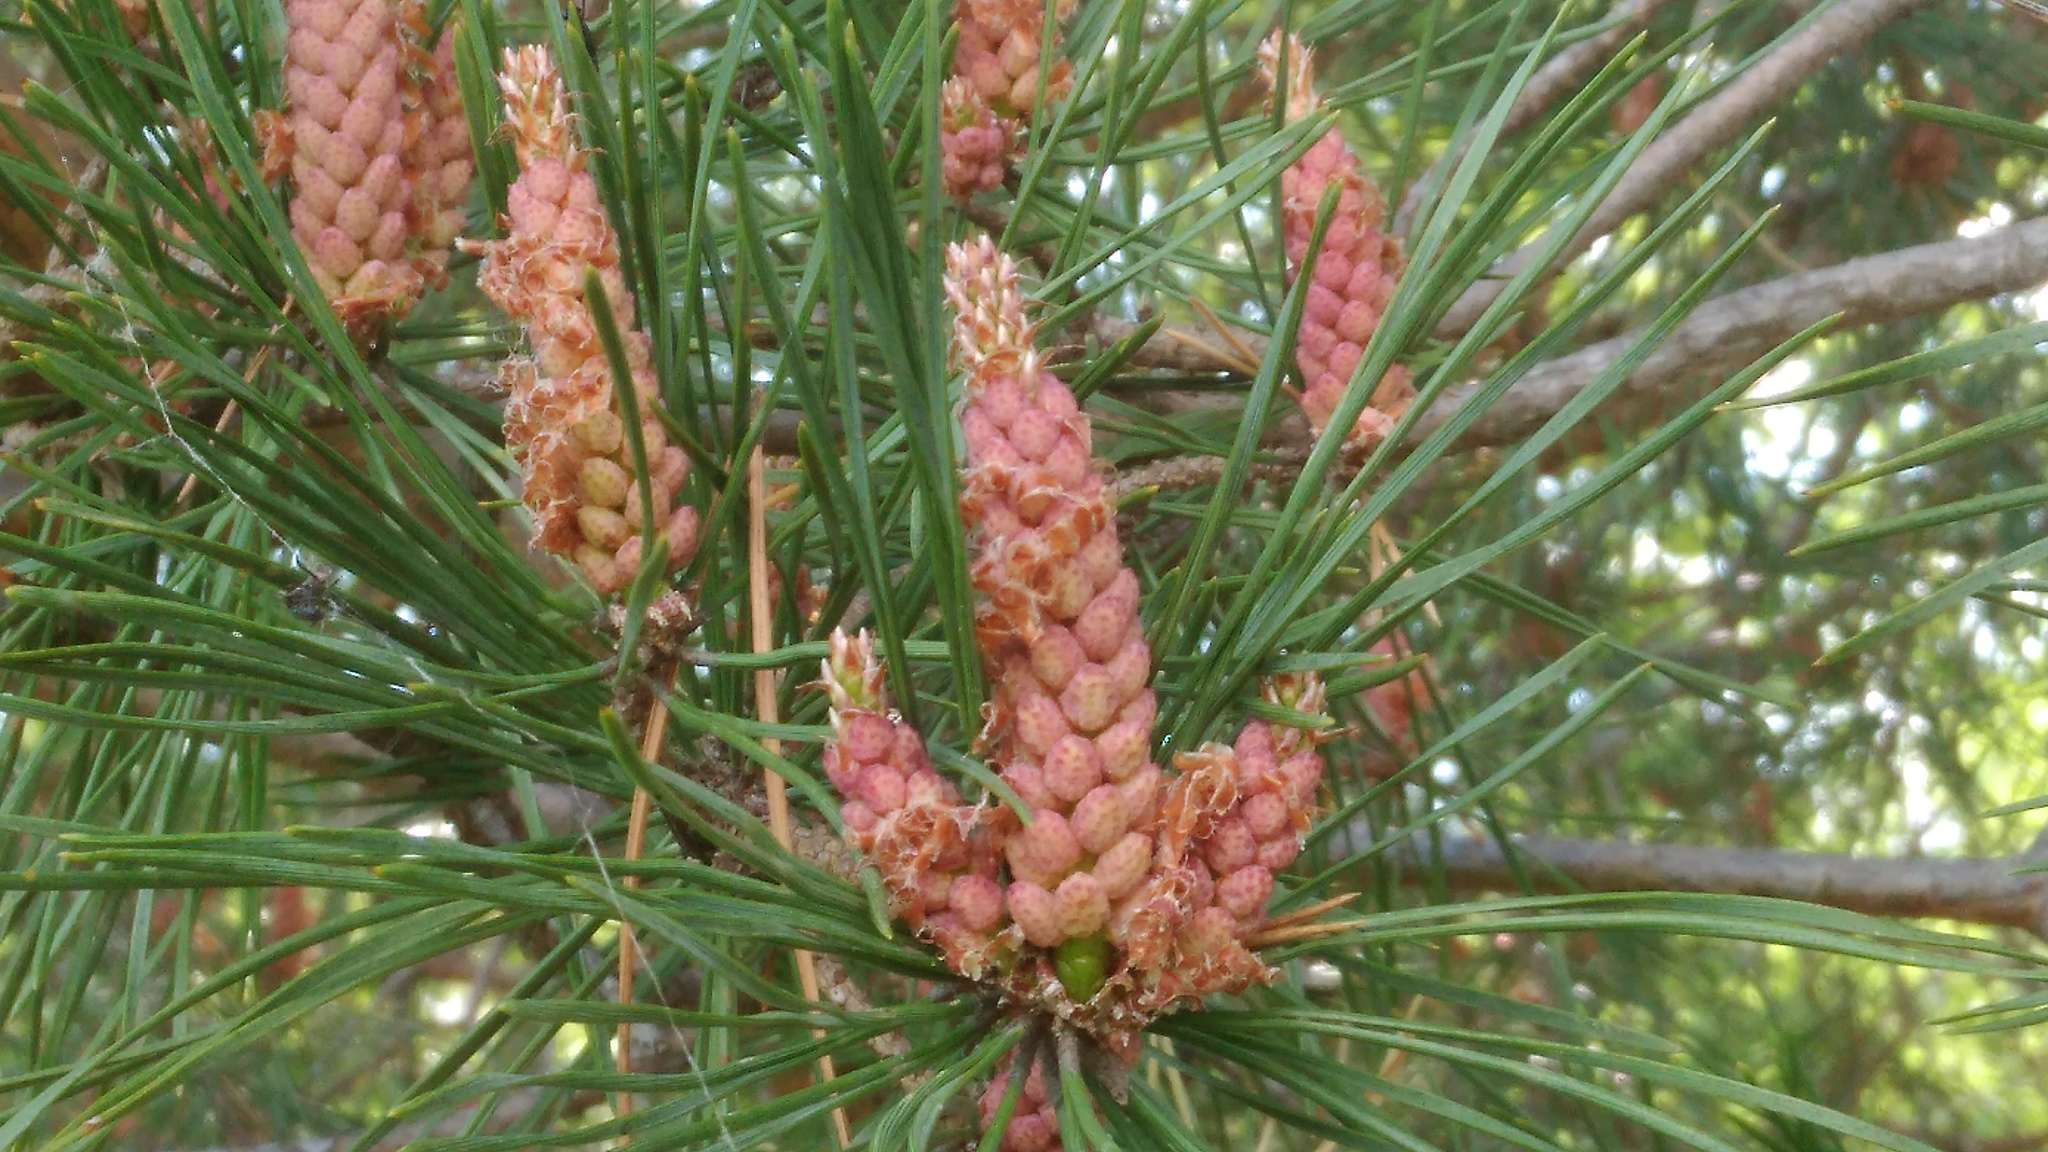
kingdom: Plantae
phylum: Tracheophyta
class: Pinopsida
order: Pinales
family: Pinaceae
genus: Pinus
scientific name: Pinus sylvestris
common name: Scots pine
